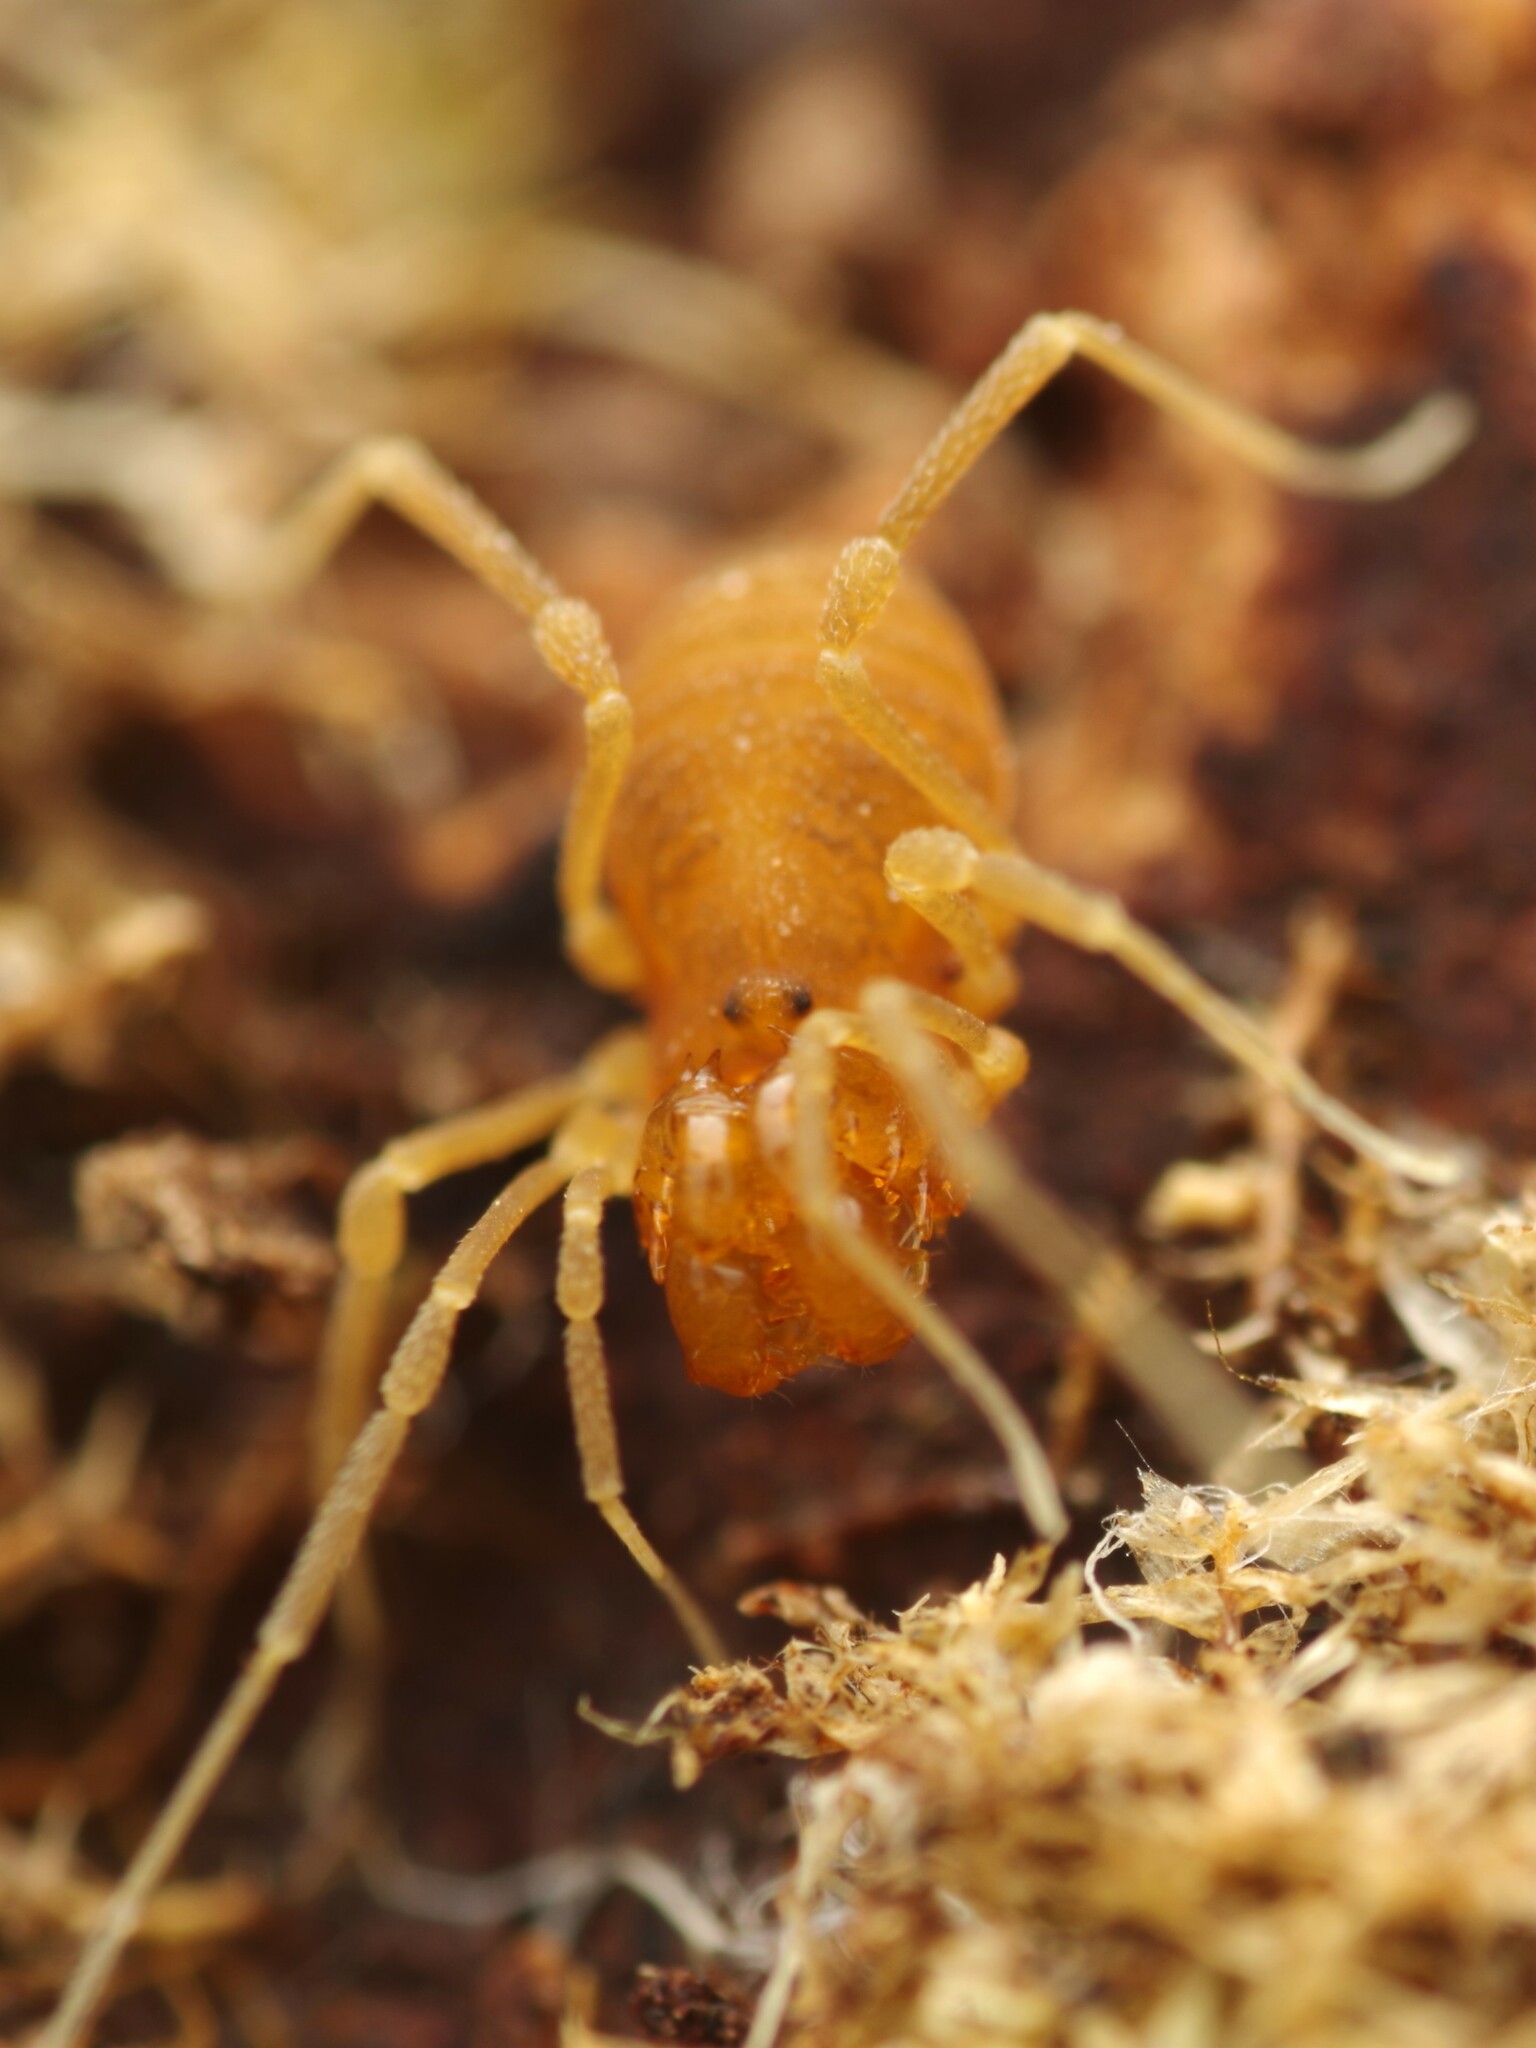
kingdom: Animalia
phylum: Arthropoda
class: Arachnida
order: Opiliones
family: Cladonychiidae
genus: Holoscotolemon
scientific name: Holoscotolemon querilhaci
